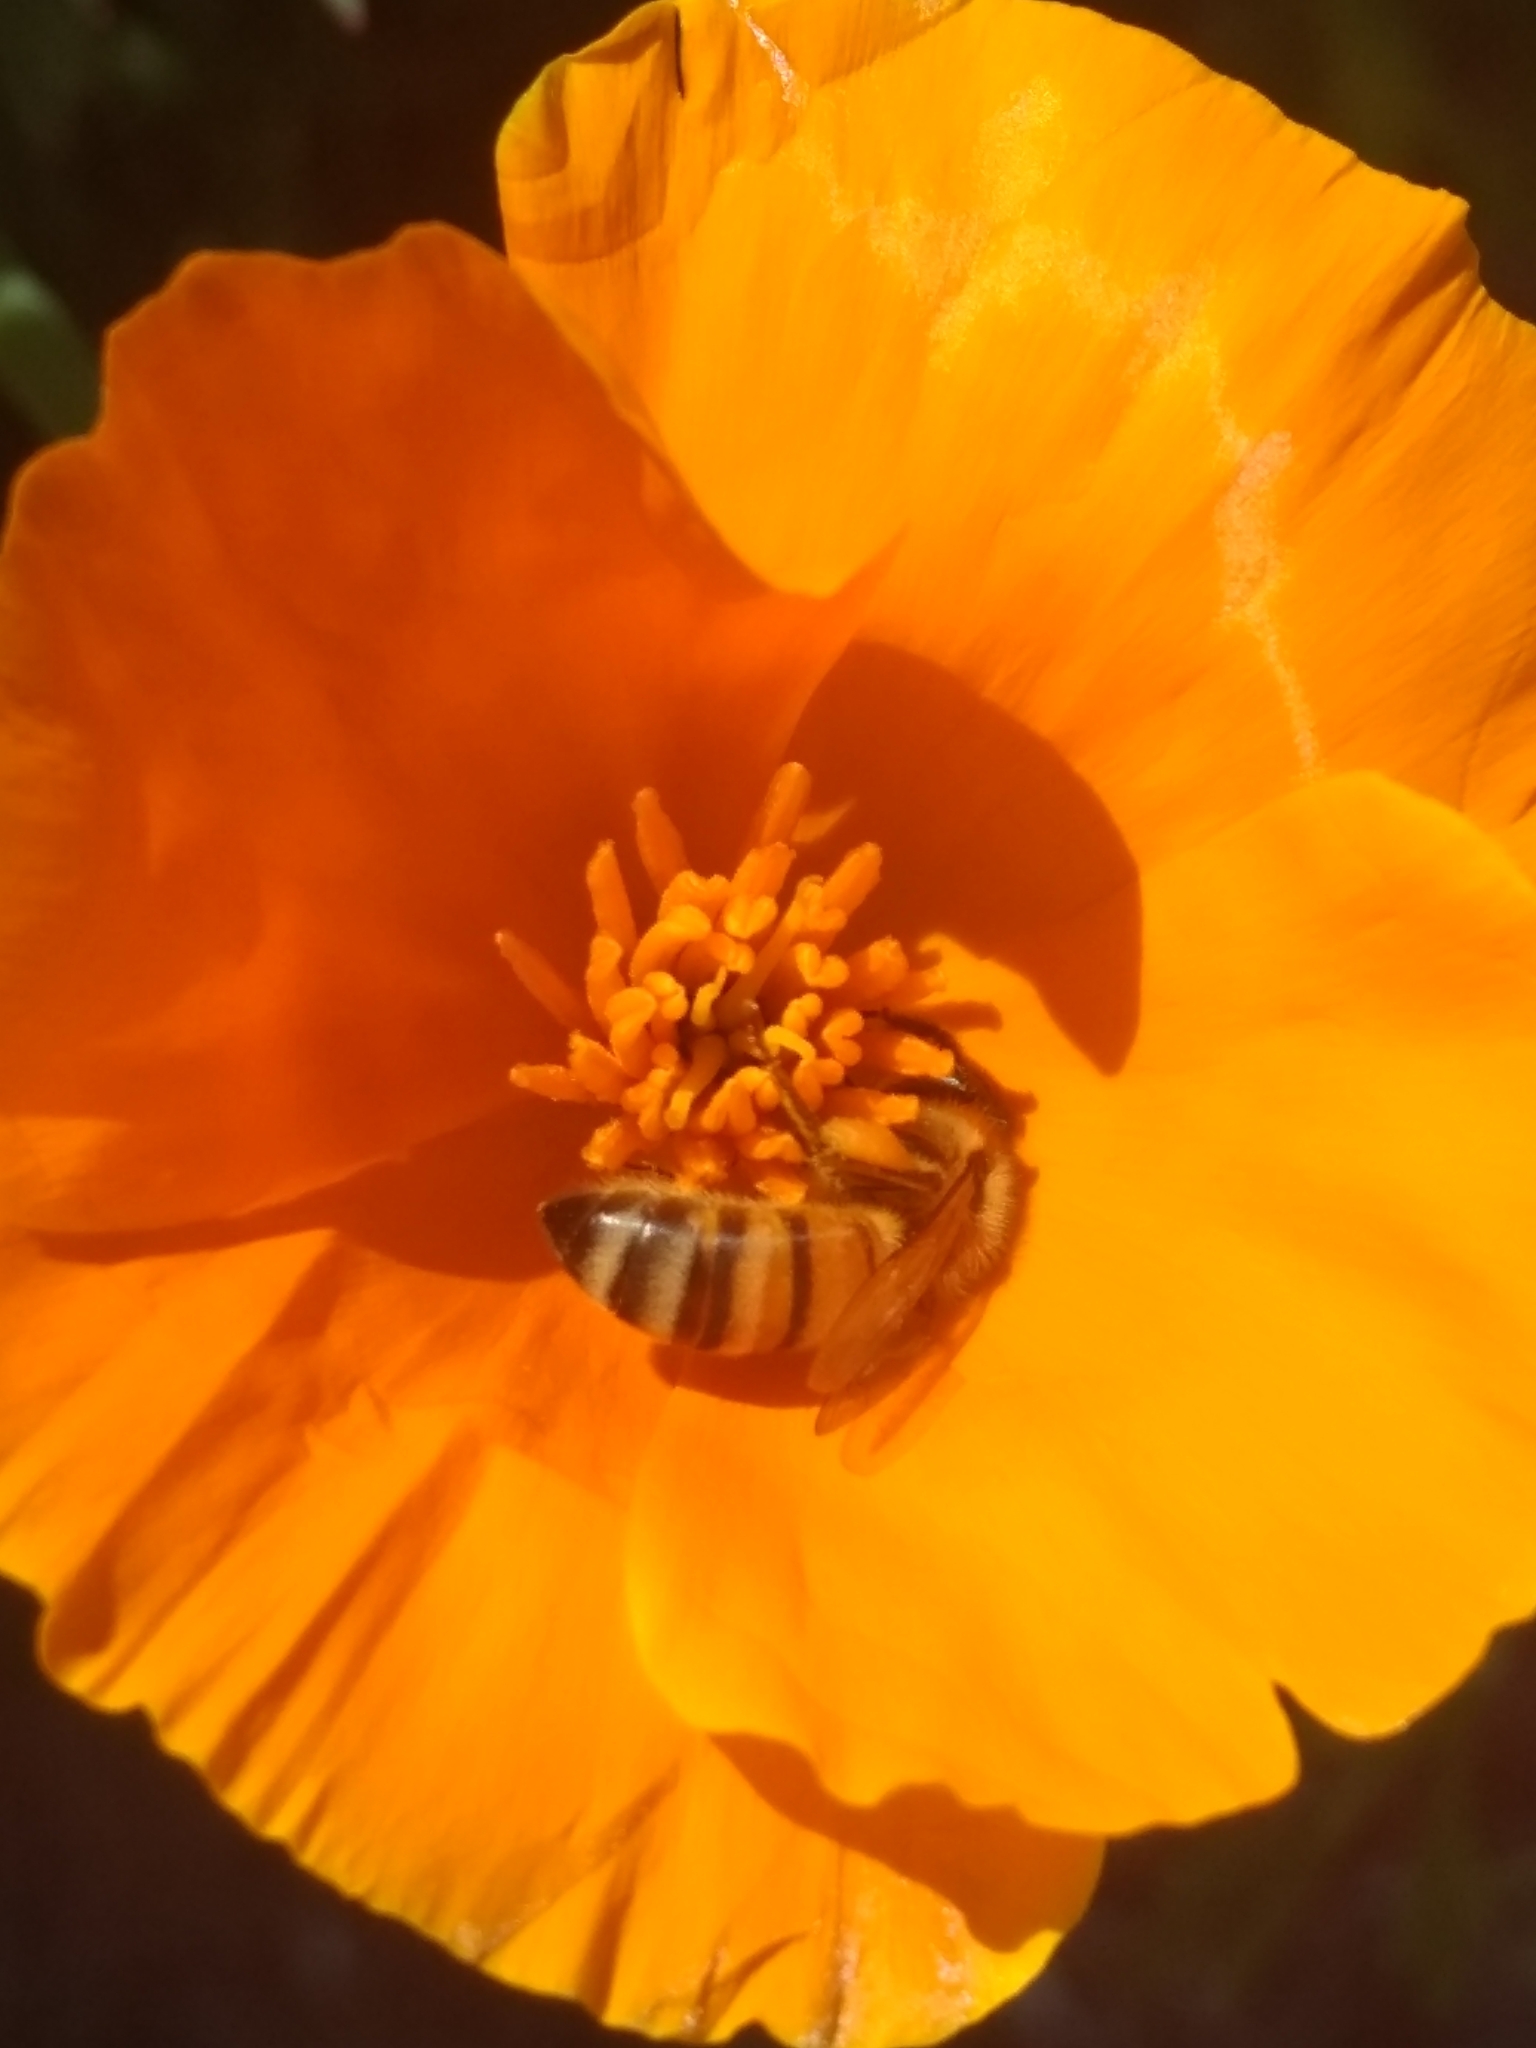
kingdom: Animalia
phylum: Arthropoda
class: Insecta
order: Hymenoptera
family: Apidae
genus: Apis
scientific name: Apis mellifera
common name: Honey bee
